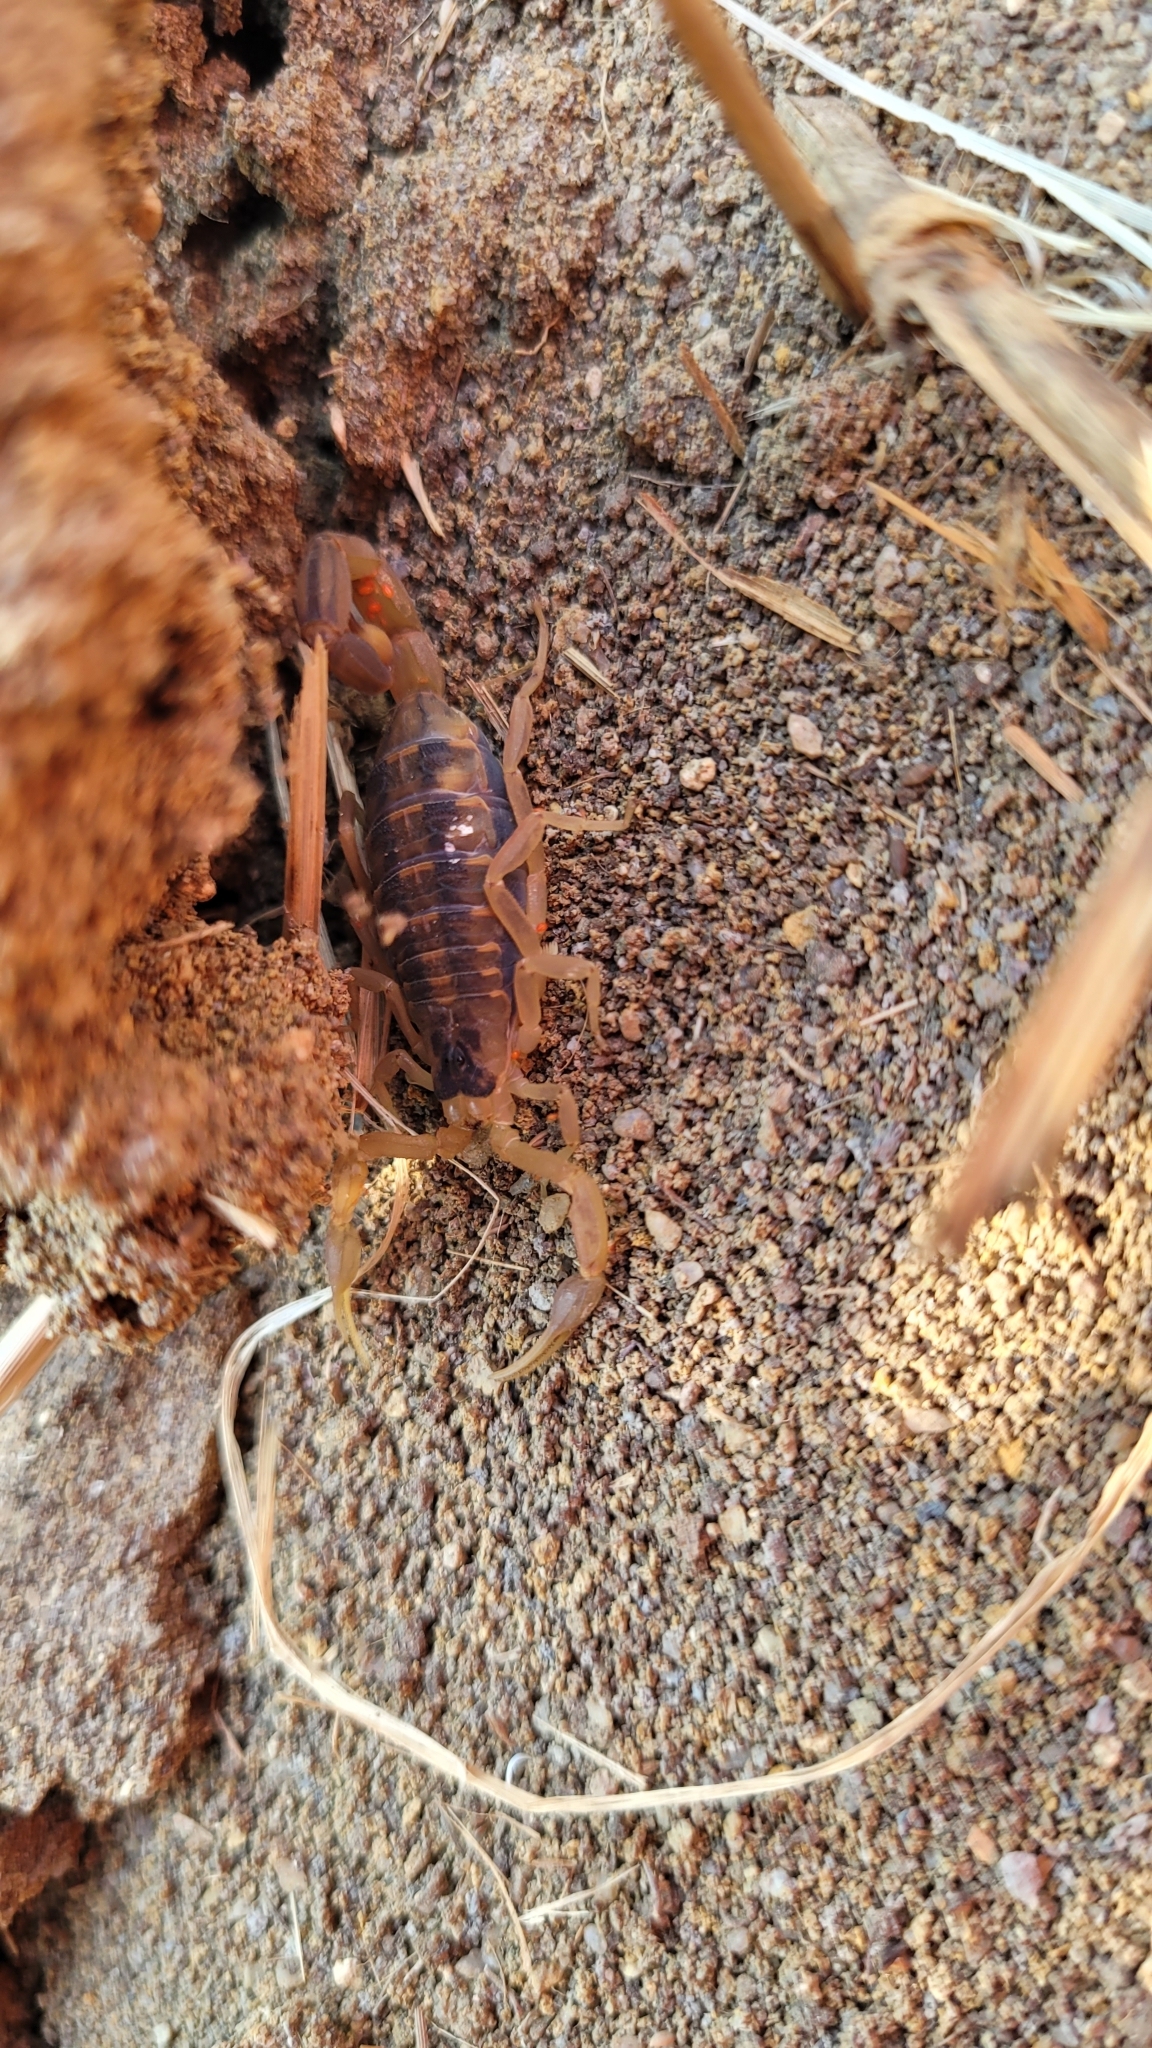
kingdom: Animalia
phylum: Arthropoda
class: Arachnida
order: Scorpiones
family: Buthidae
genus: Centruroides
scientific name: Centruroides vittatus
